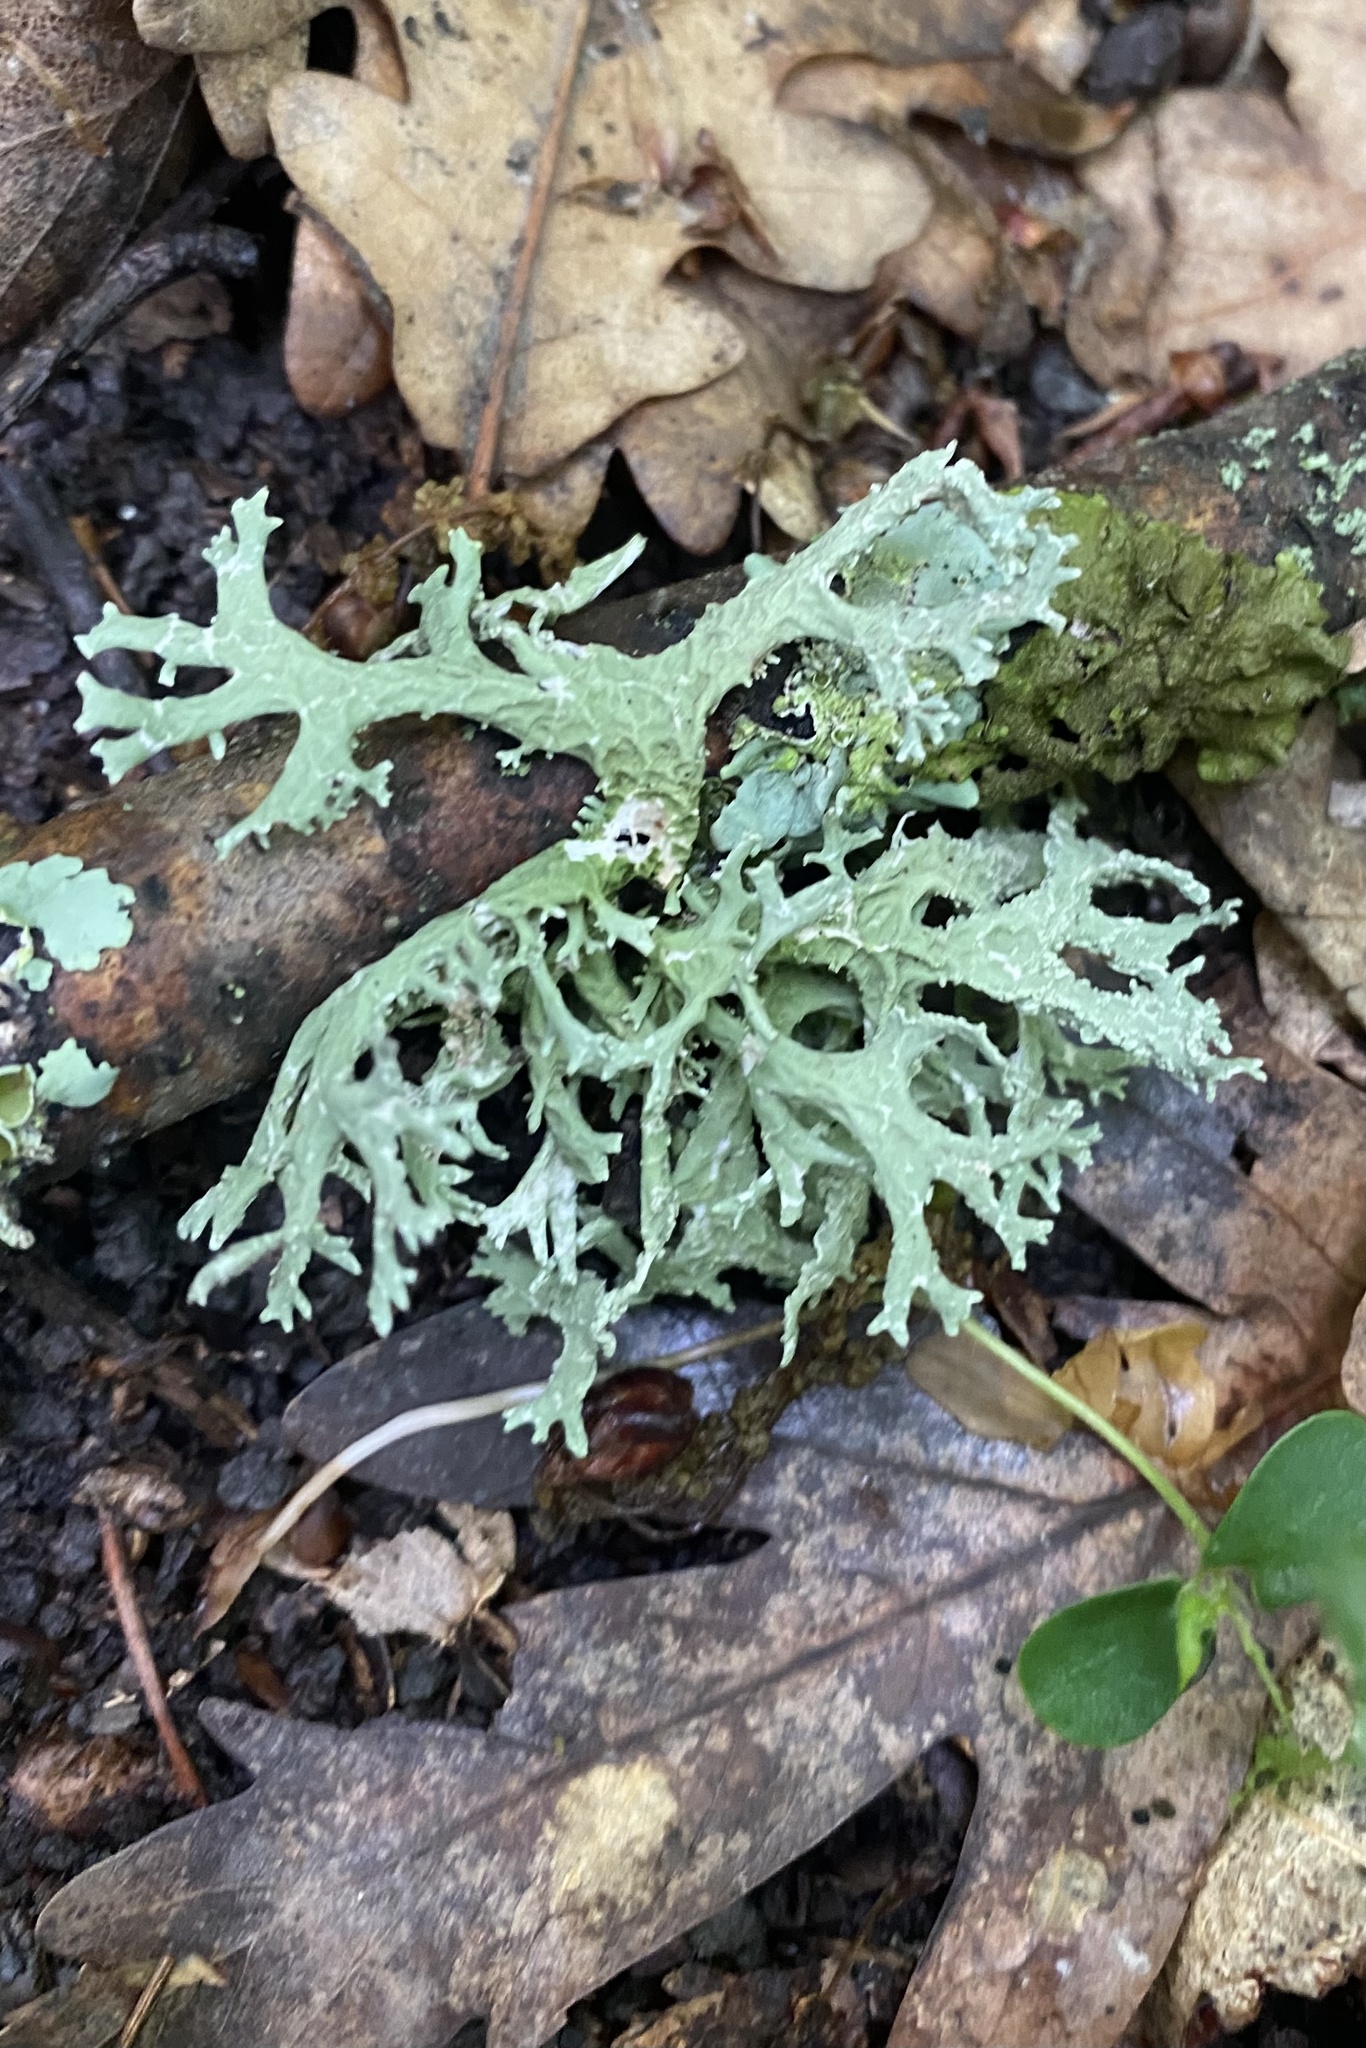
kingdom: Fungi
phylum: Ascomycota
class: Lecanoromycetes
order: Lecanorales
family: Parmeliaceae
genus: Evernia
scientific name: Evernia prunastri
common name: Oak moss
